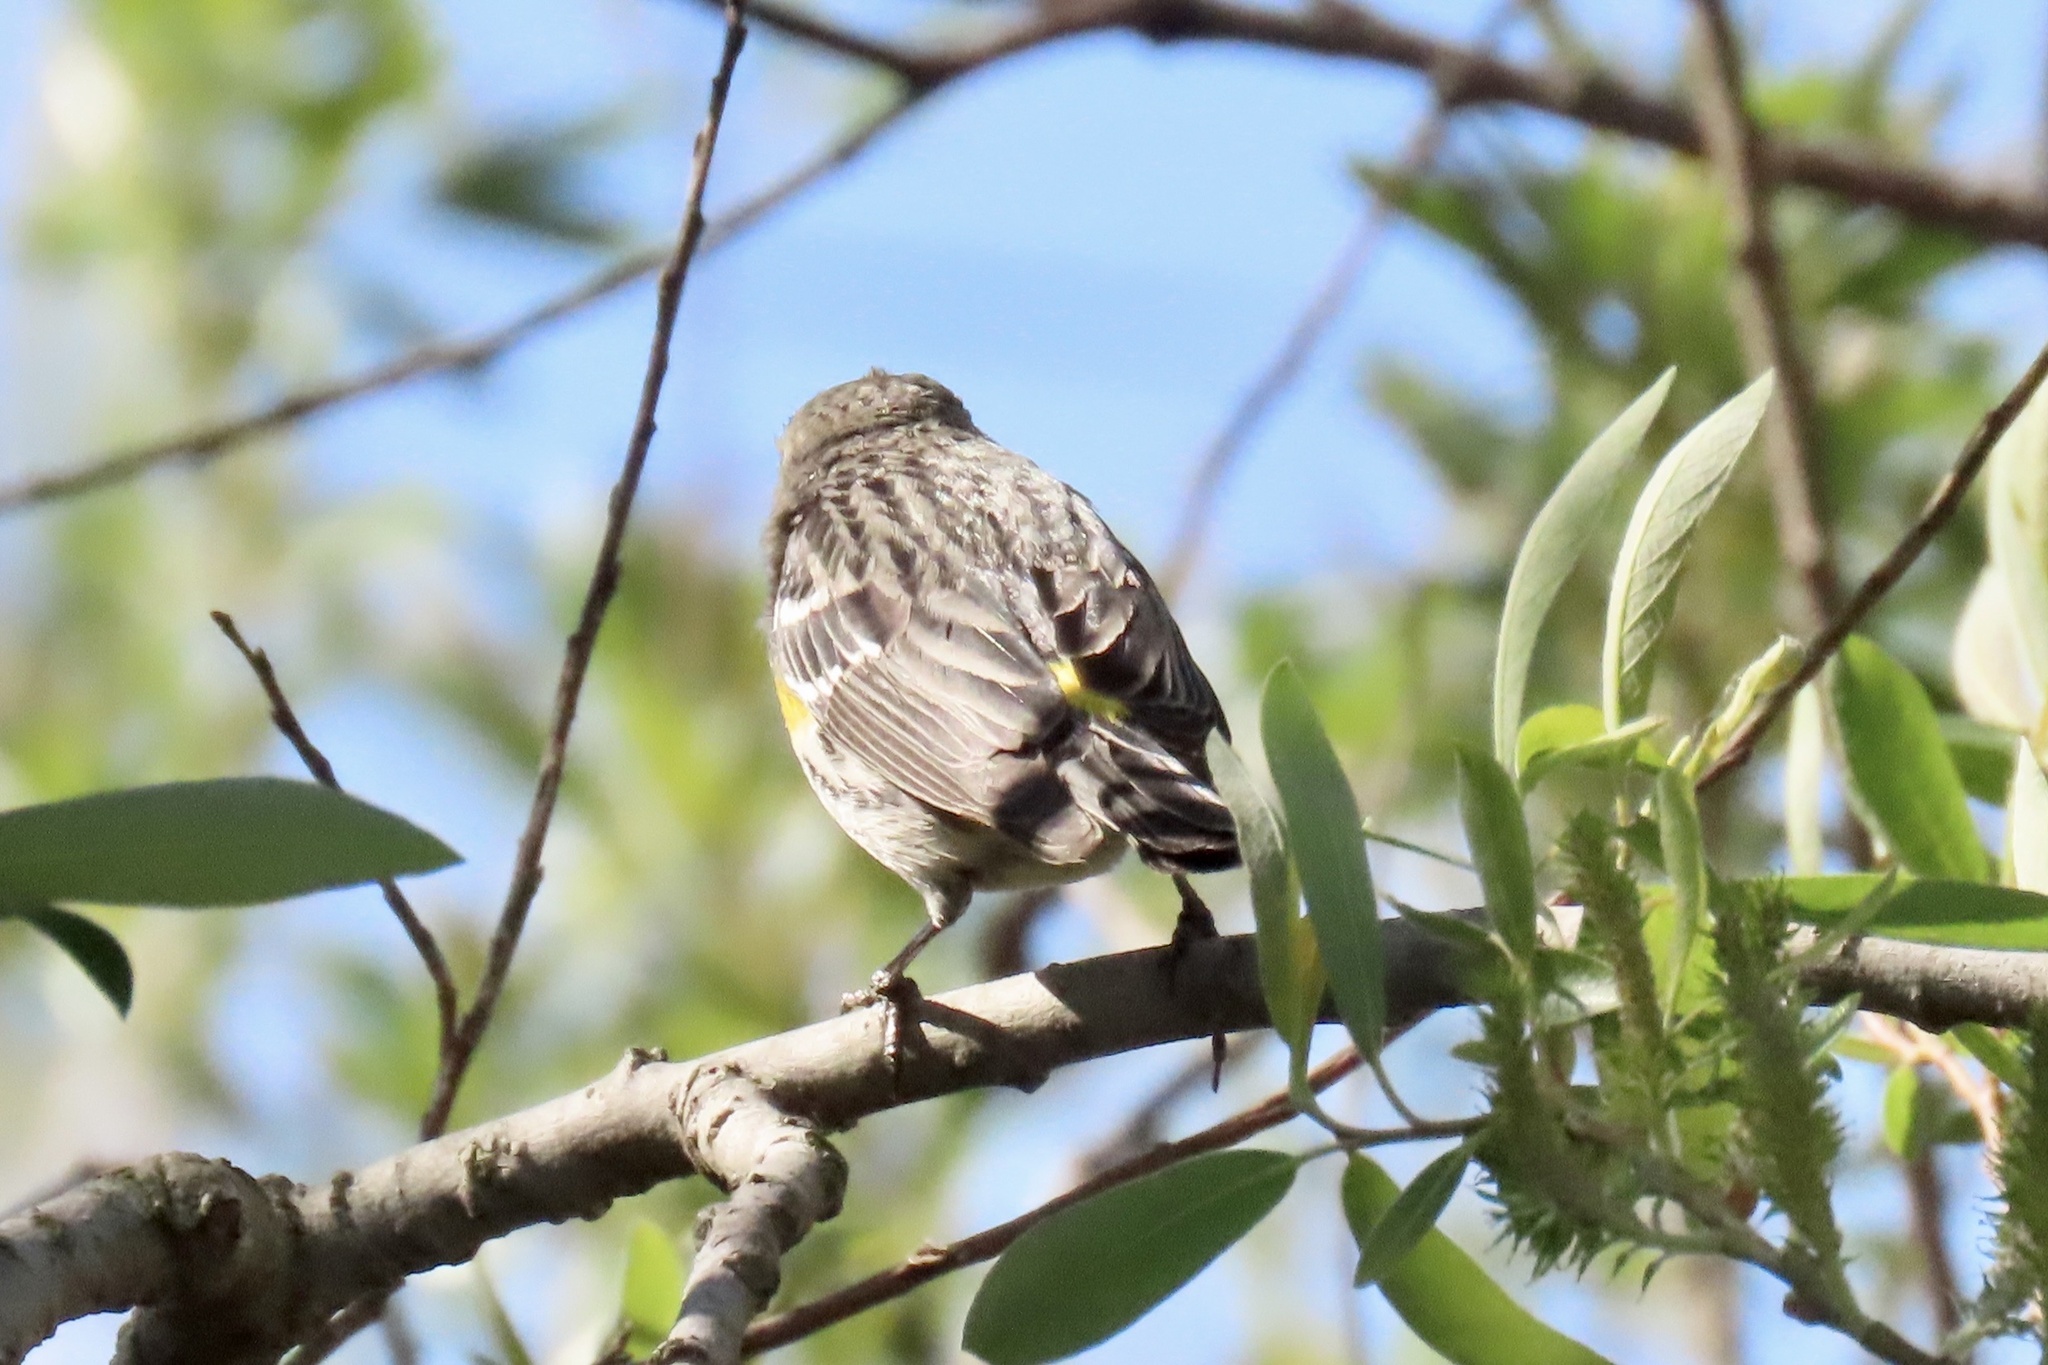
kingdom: Animalia
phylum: Chordata
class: Aves
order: Passeriformes
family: Parulidae
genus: Setophaga
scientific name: Setophaga coronata
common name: Myrtle warbler
